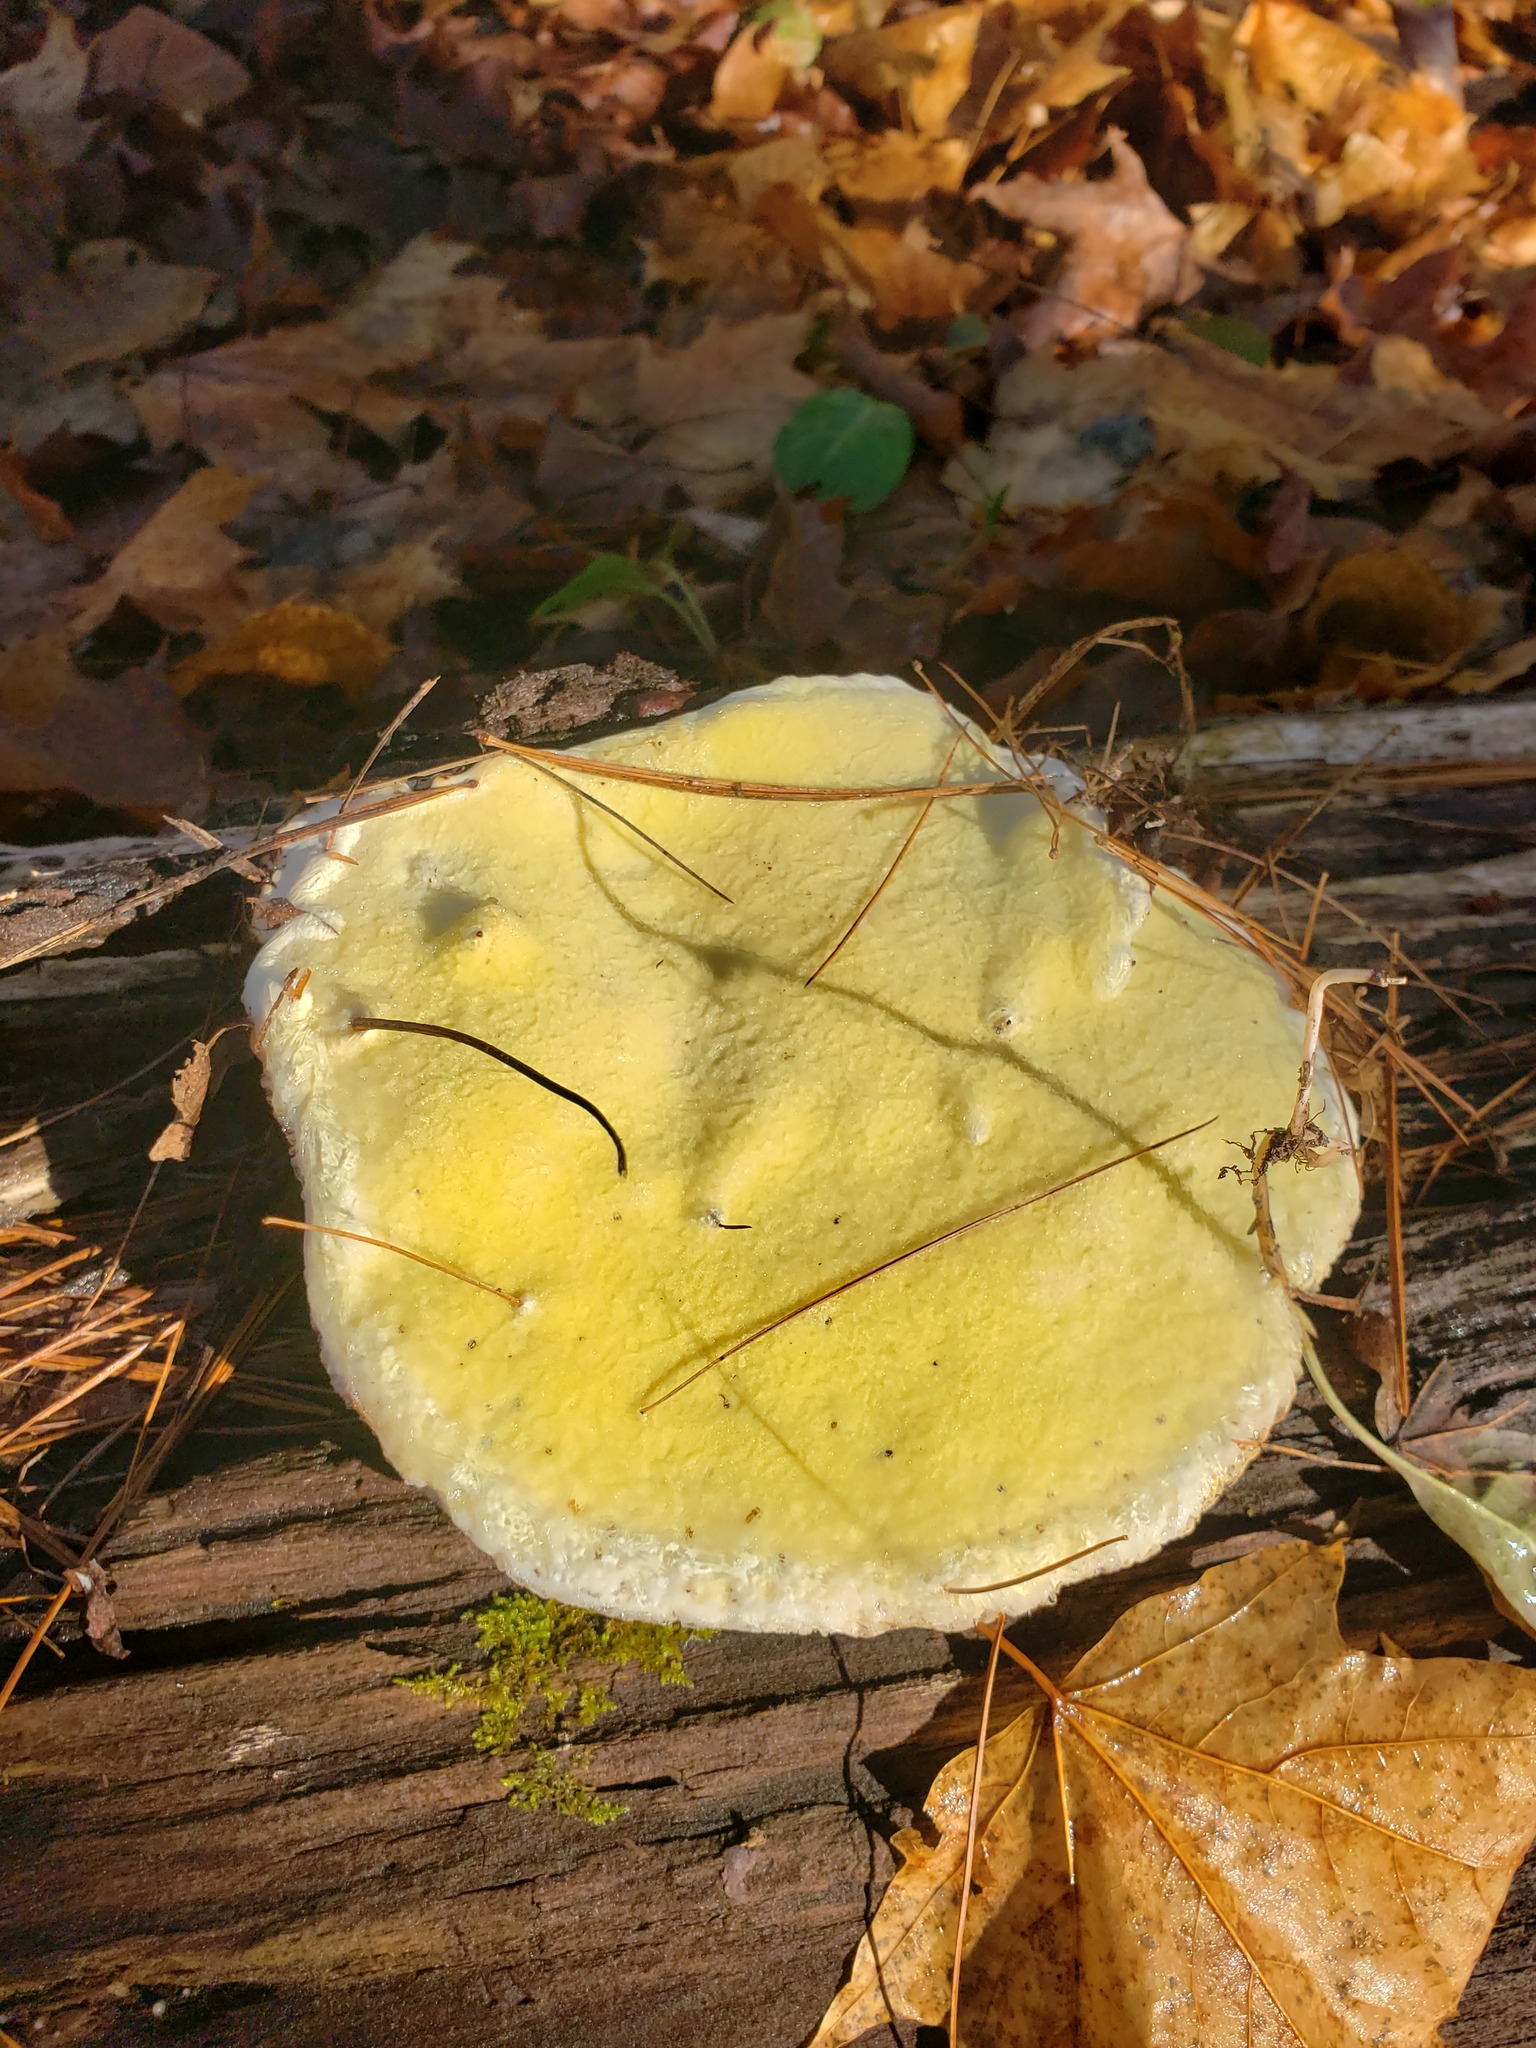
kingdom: Fungi
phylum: Basidiomycota
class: Agaricomycetes
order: Polyporales
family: Fomitopsidaceae
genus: Fomitopsis
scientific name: Fomitopsis mounceae
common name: Northern red belt
